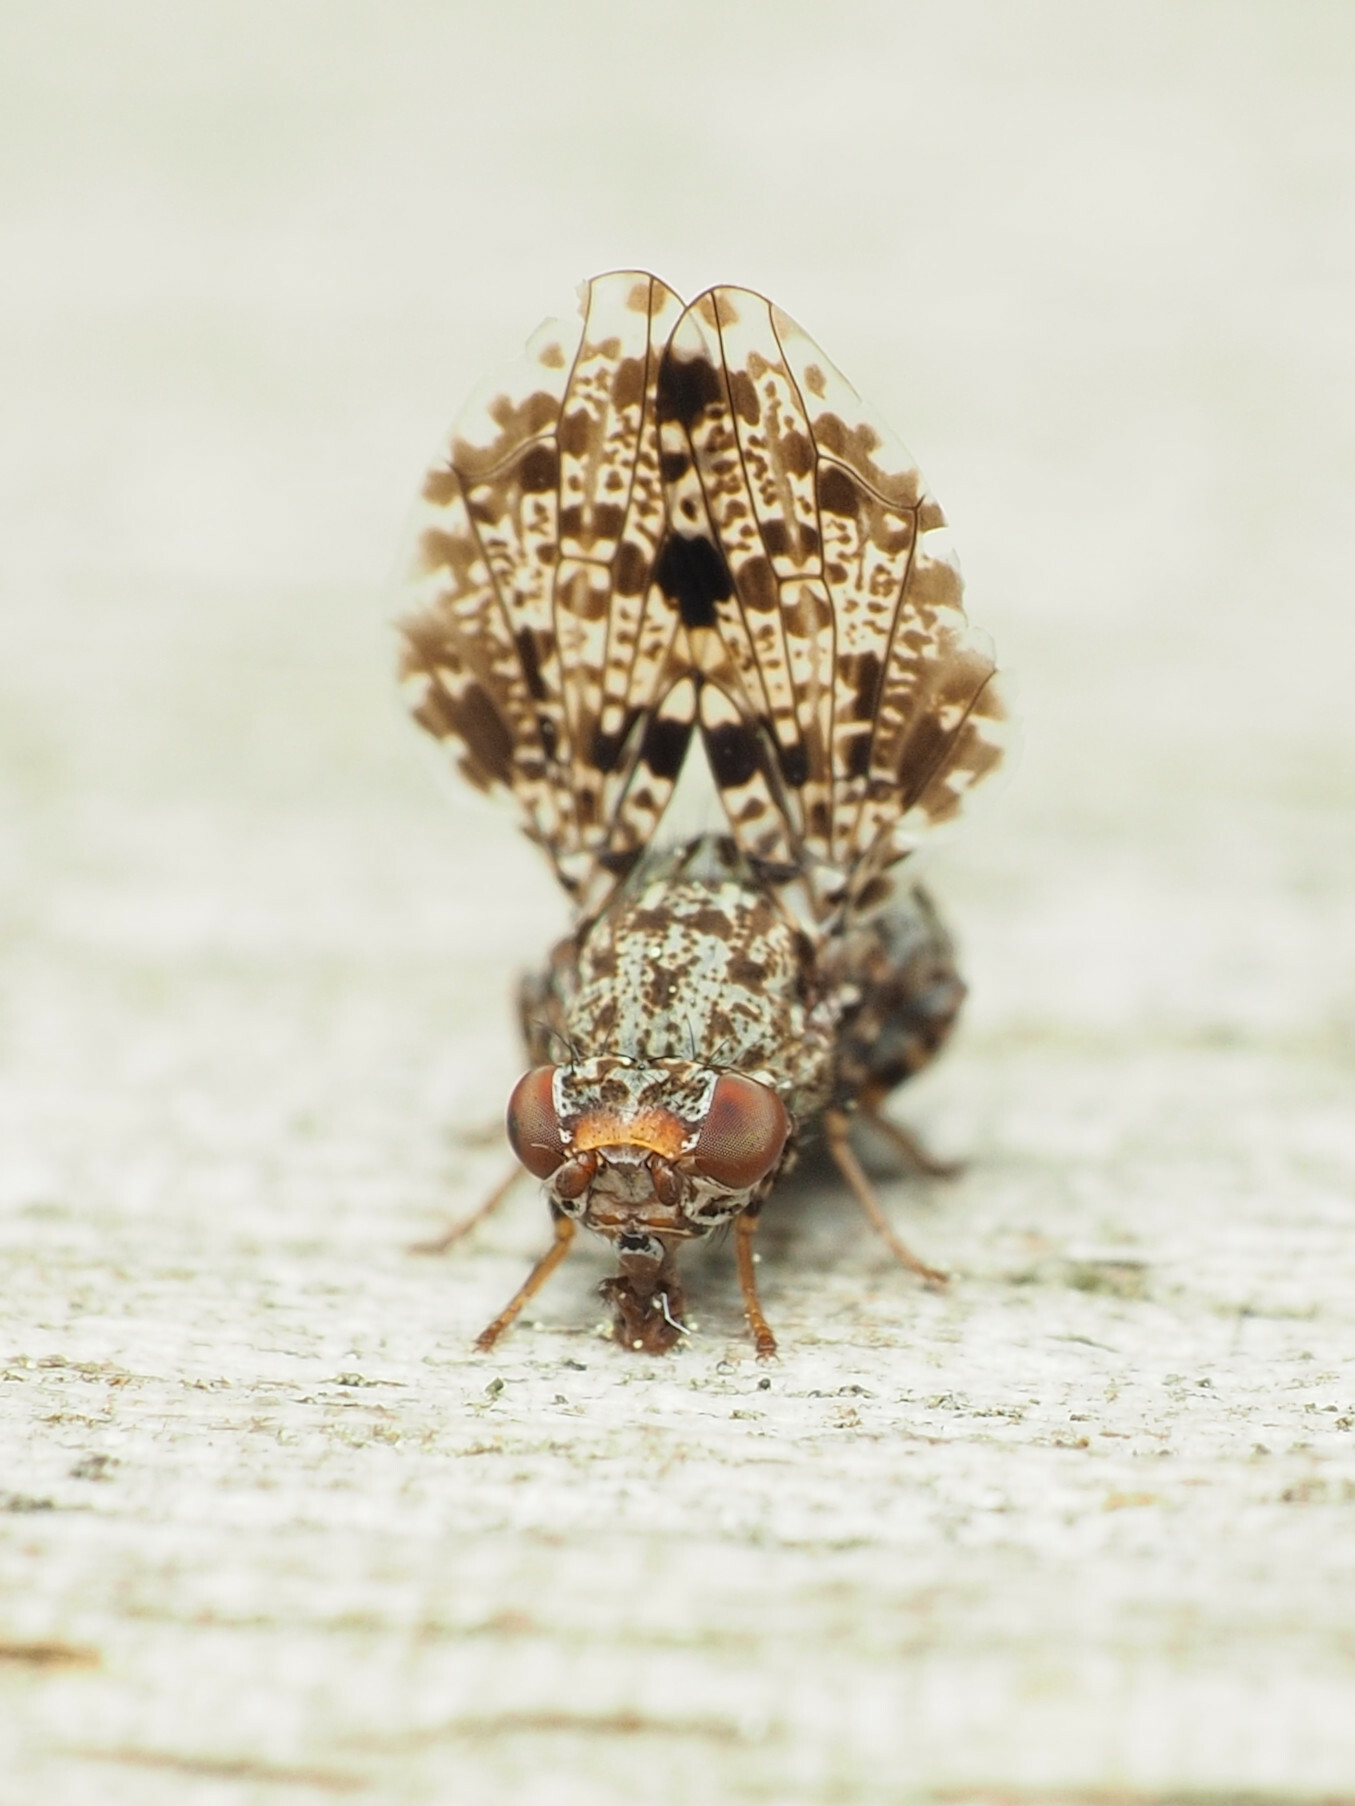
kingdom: Animalia
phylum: Arthropoda
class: Insecta
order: Diptera
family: Ulidiidae
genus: Callopistromyia
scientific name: Callopistromyia annulipes
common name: Peacock fly
